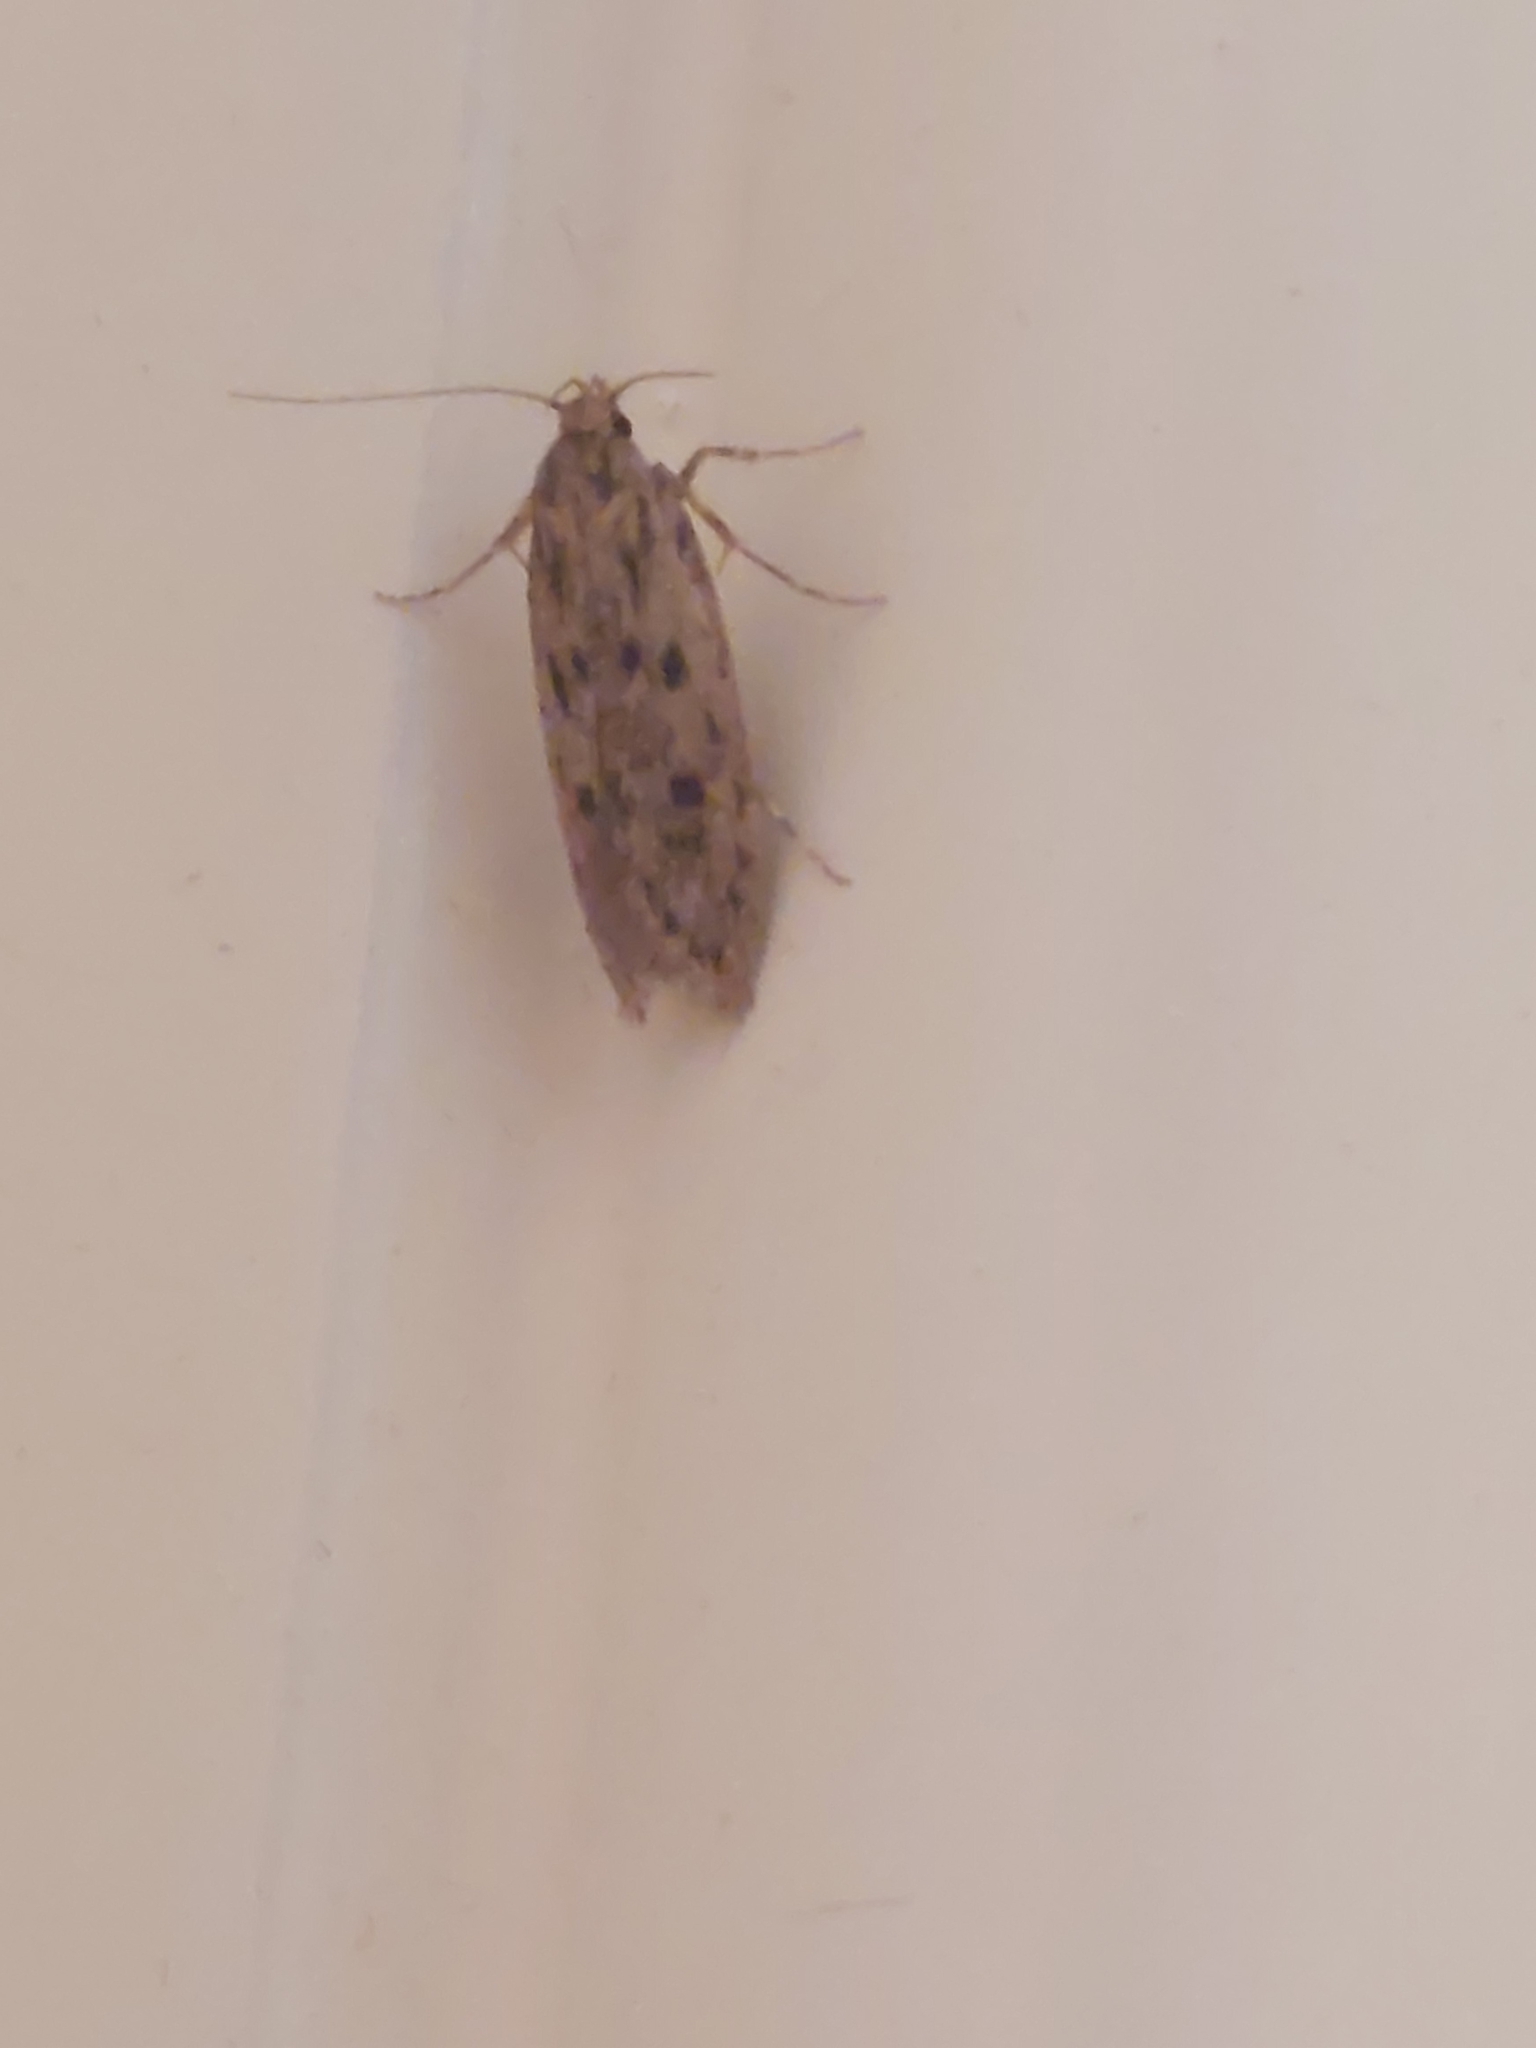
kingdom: Animalia
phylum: Arthropoda
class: Insecta
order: Lepidoptera
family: Oecophoridae
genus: Hofmannophila
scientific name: Hofmannophila pseudospretella
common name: Brown house moth
